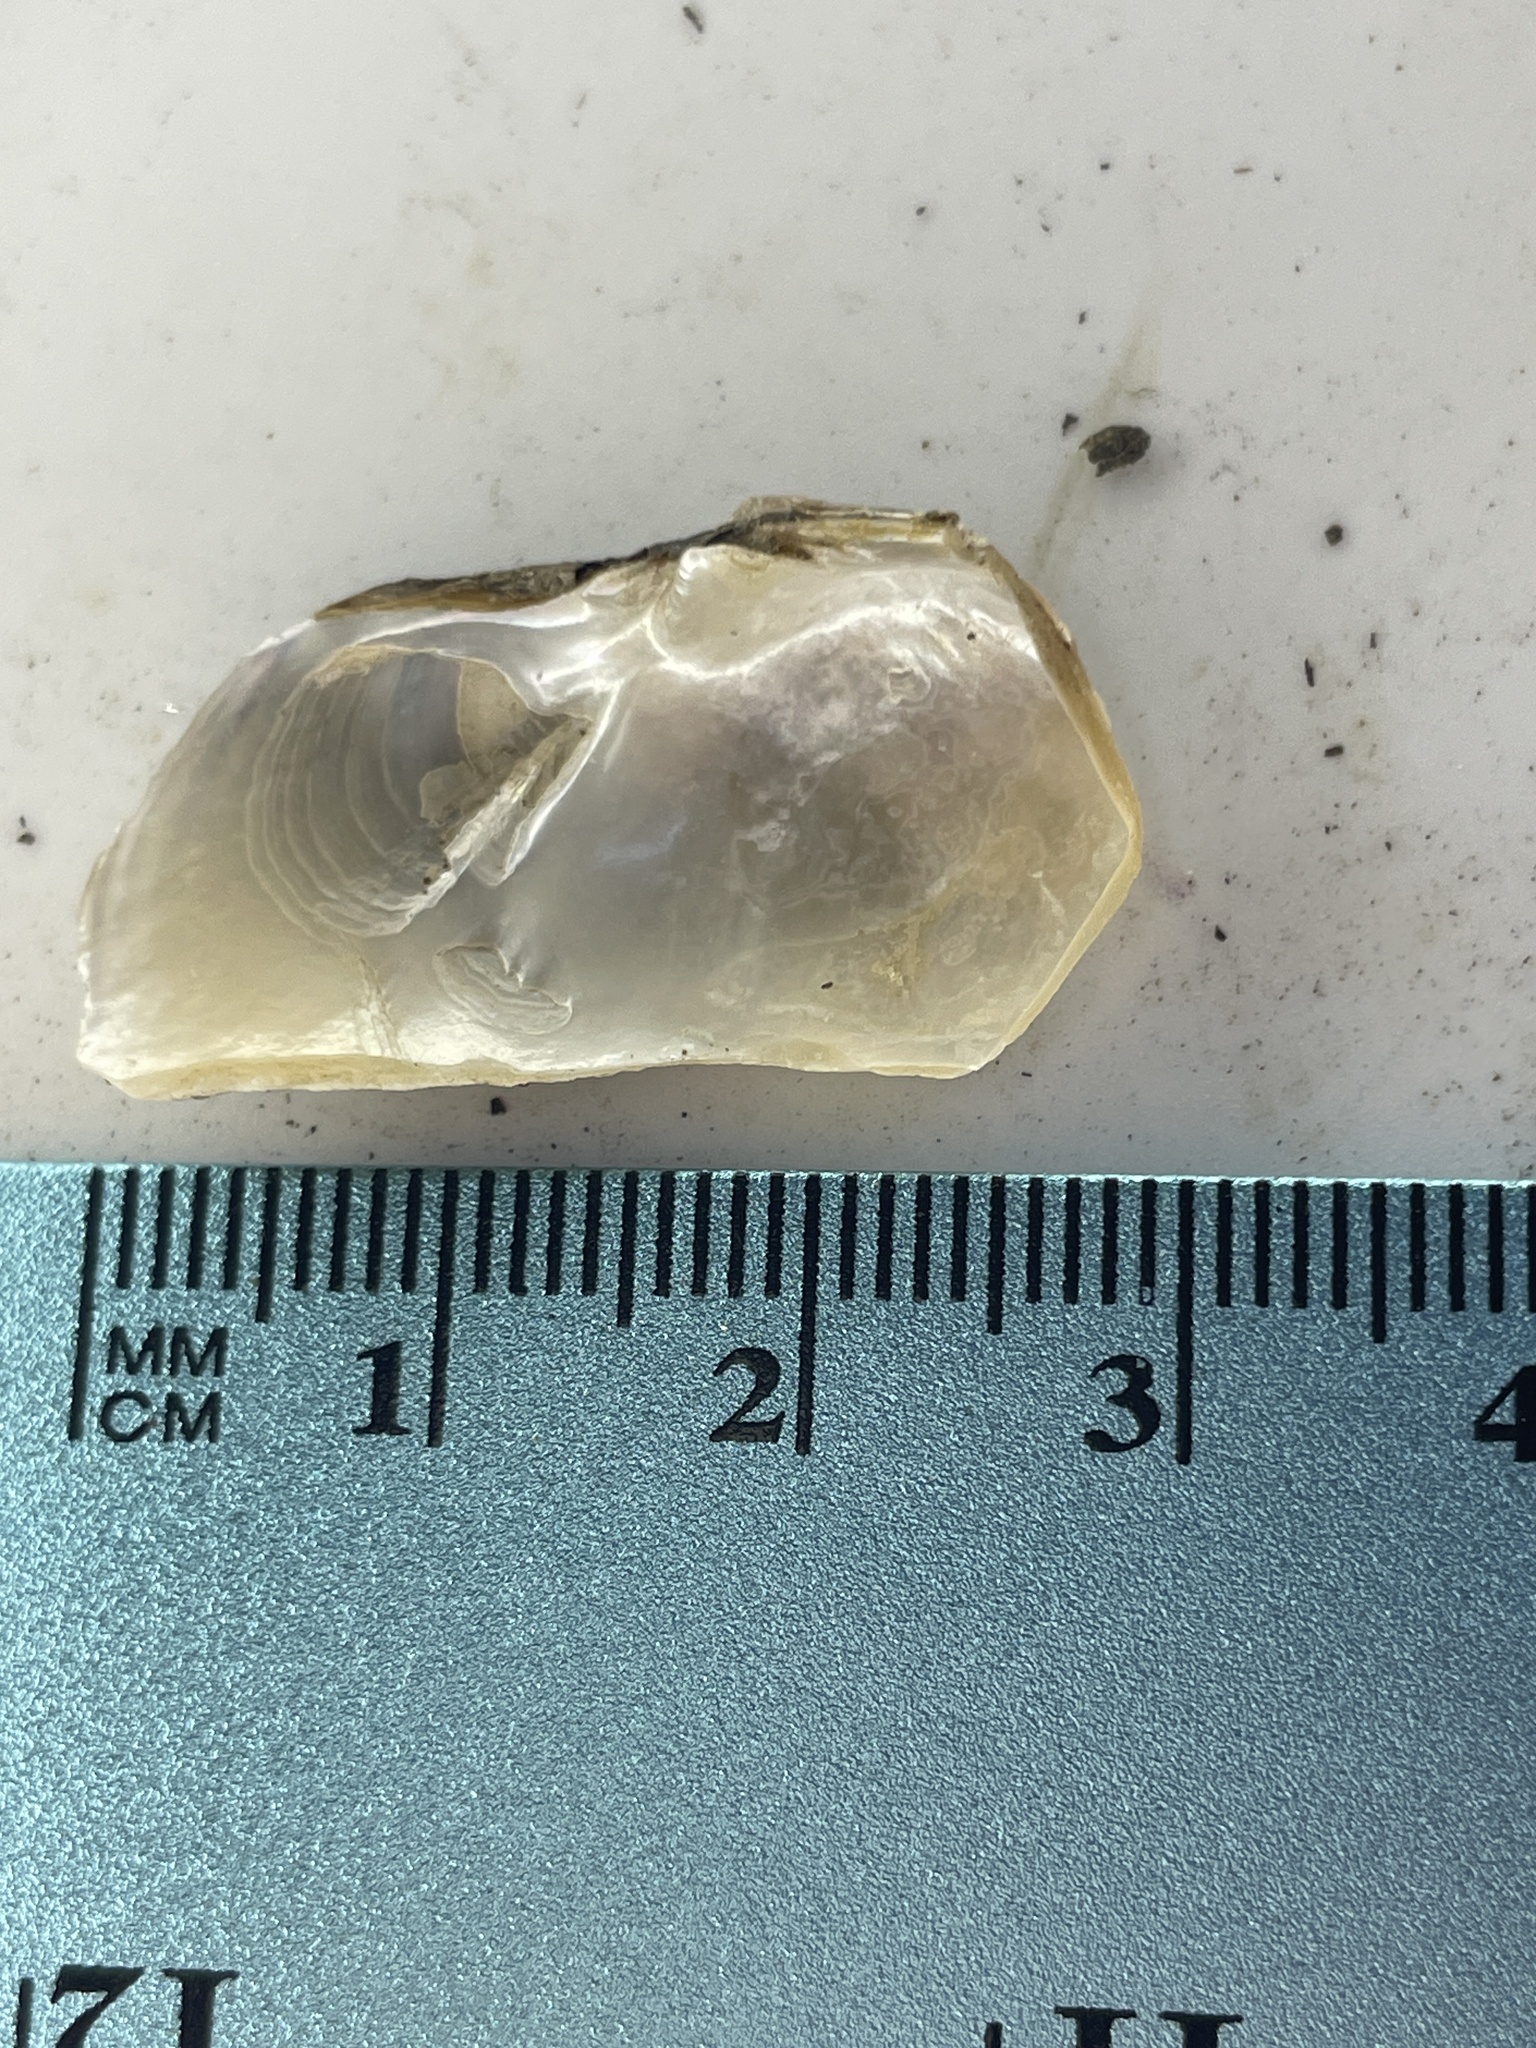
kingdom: Animalia
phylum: Mollusca
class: Bivalvia
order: Unionida
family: Unionidae
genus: Lampsilis
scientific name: Lampsilis siliquoidea
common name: Fatmucket
